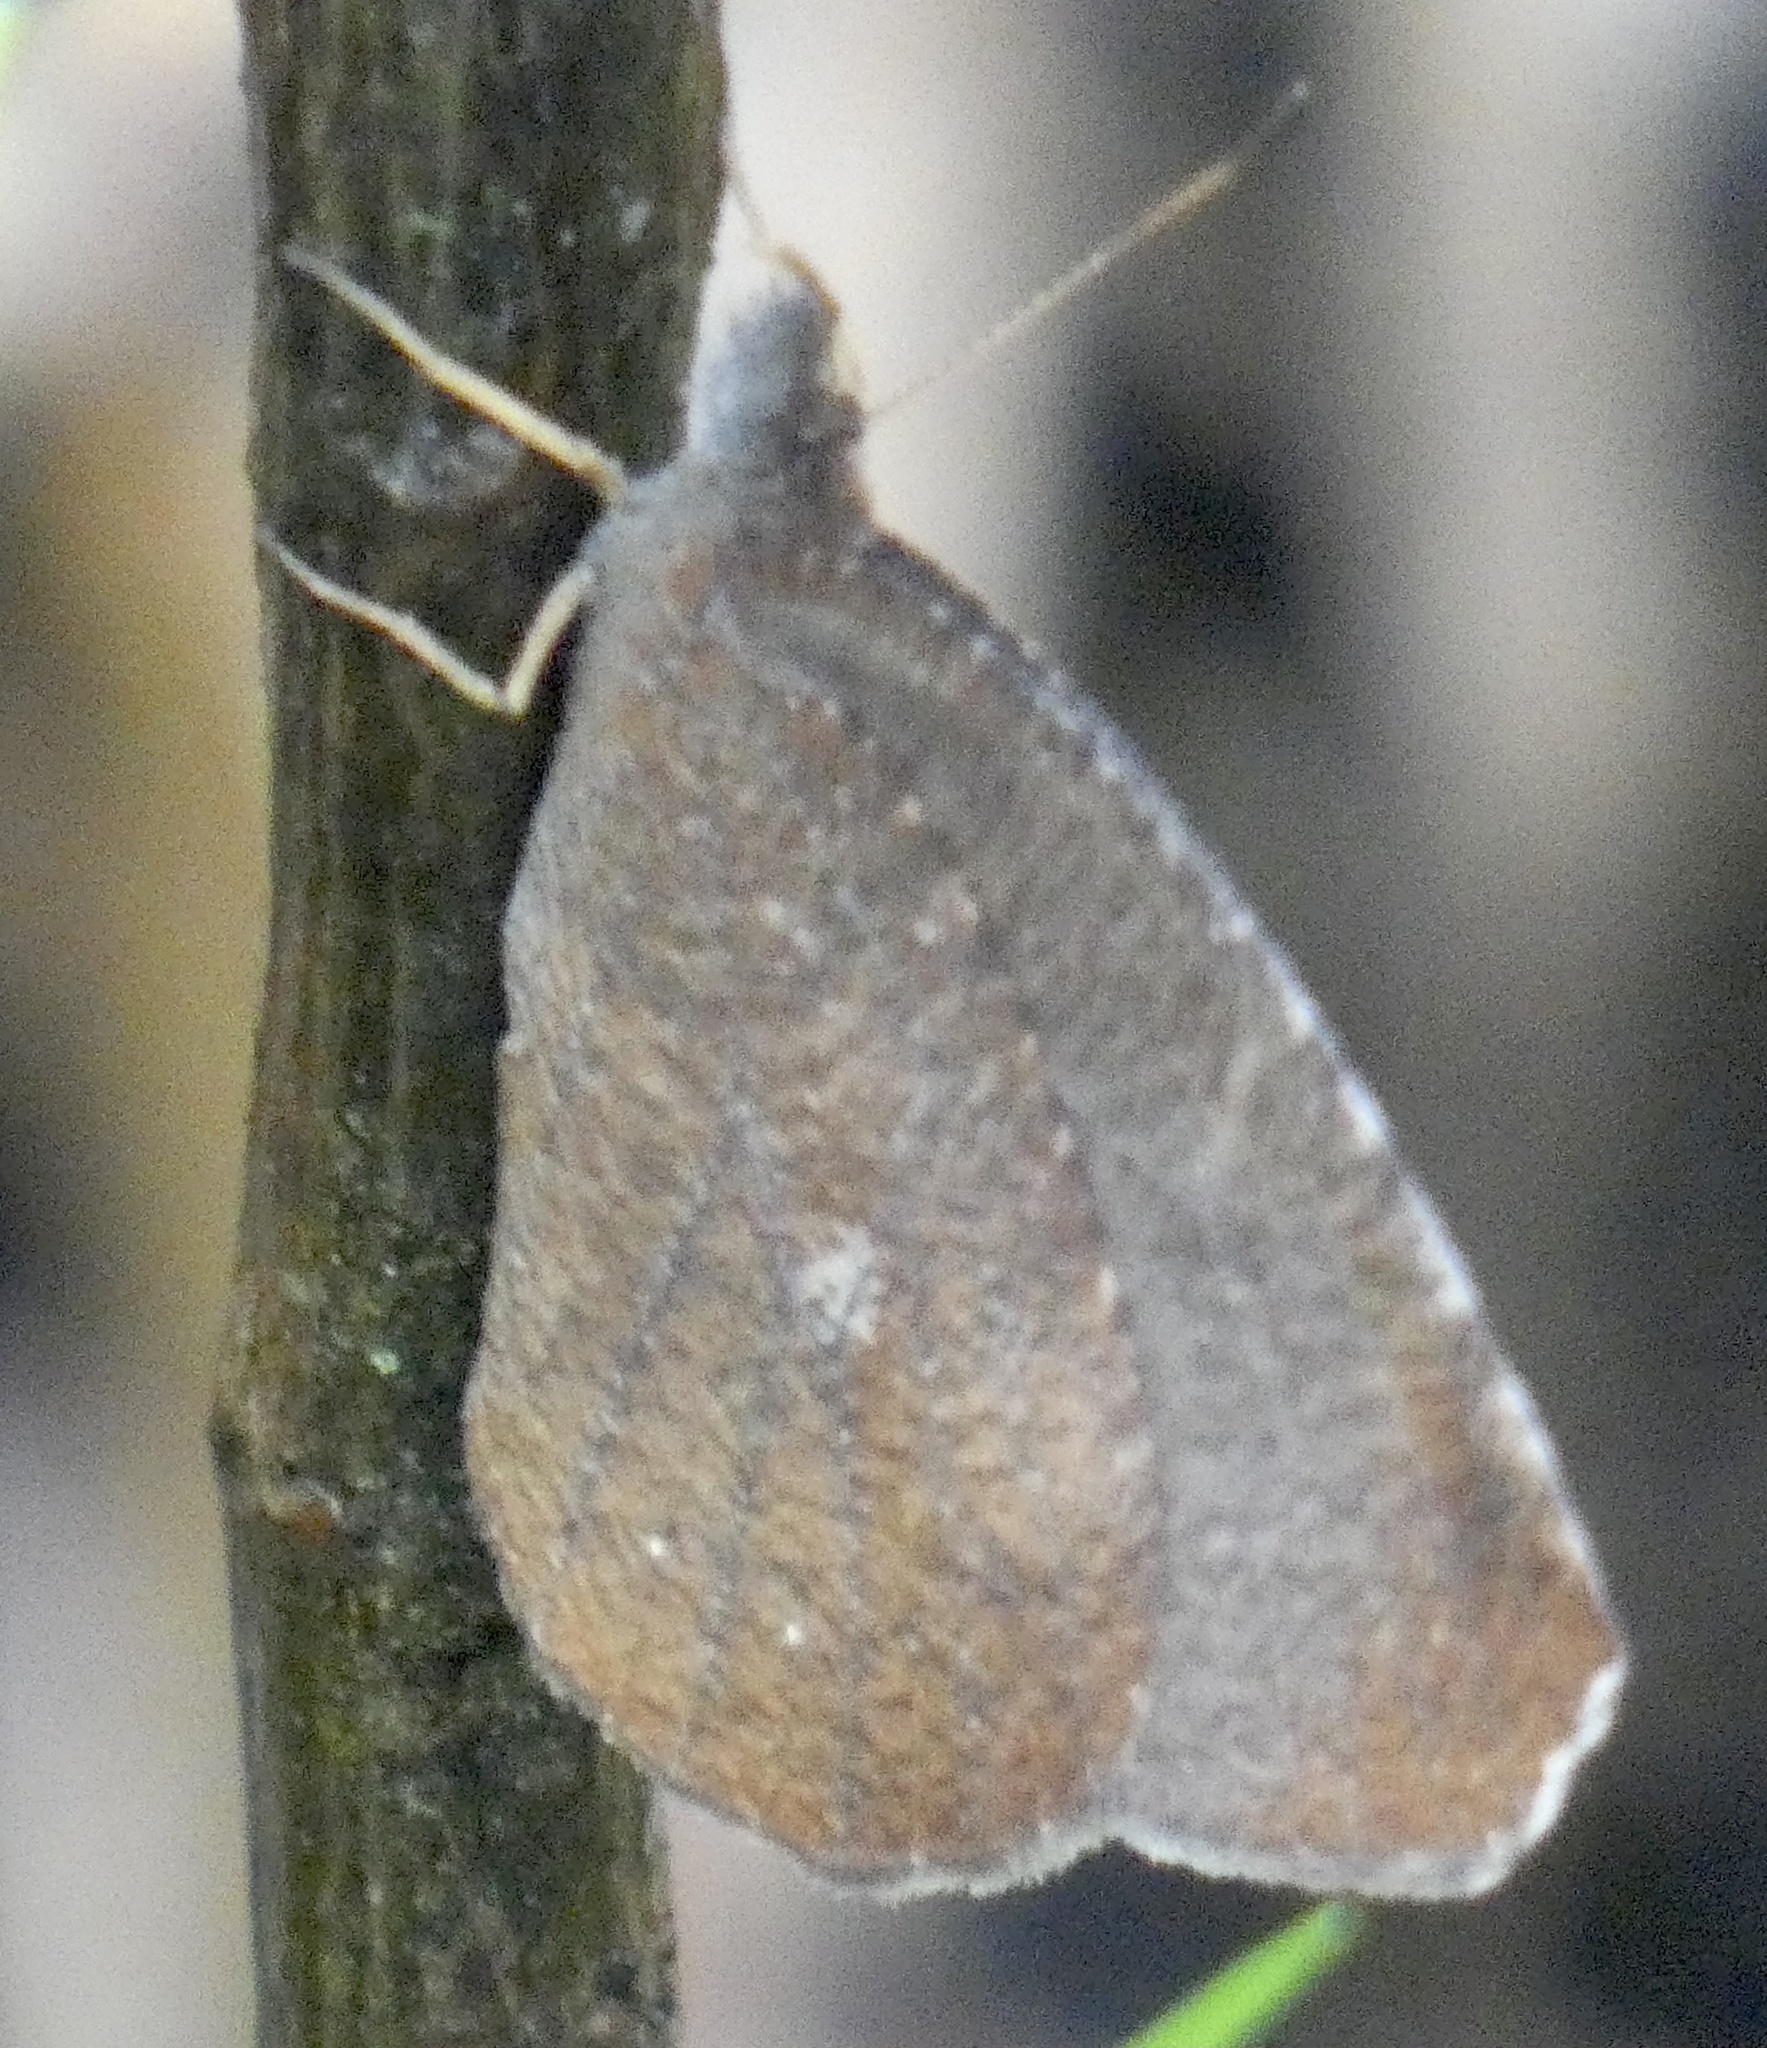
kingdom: Animalia
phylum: Arthropoda
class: Insecta
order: Lepidoptera
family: Nymphalidae
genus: Godartiana
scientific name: Godartiana muscosa
